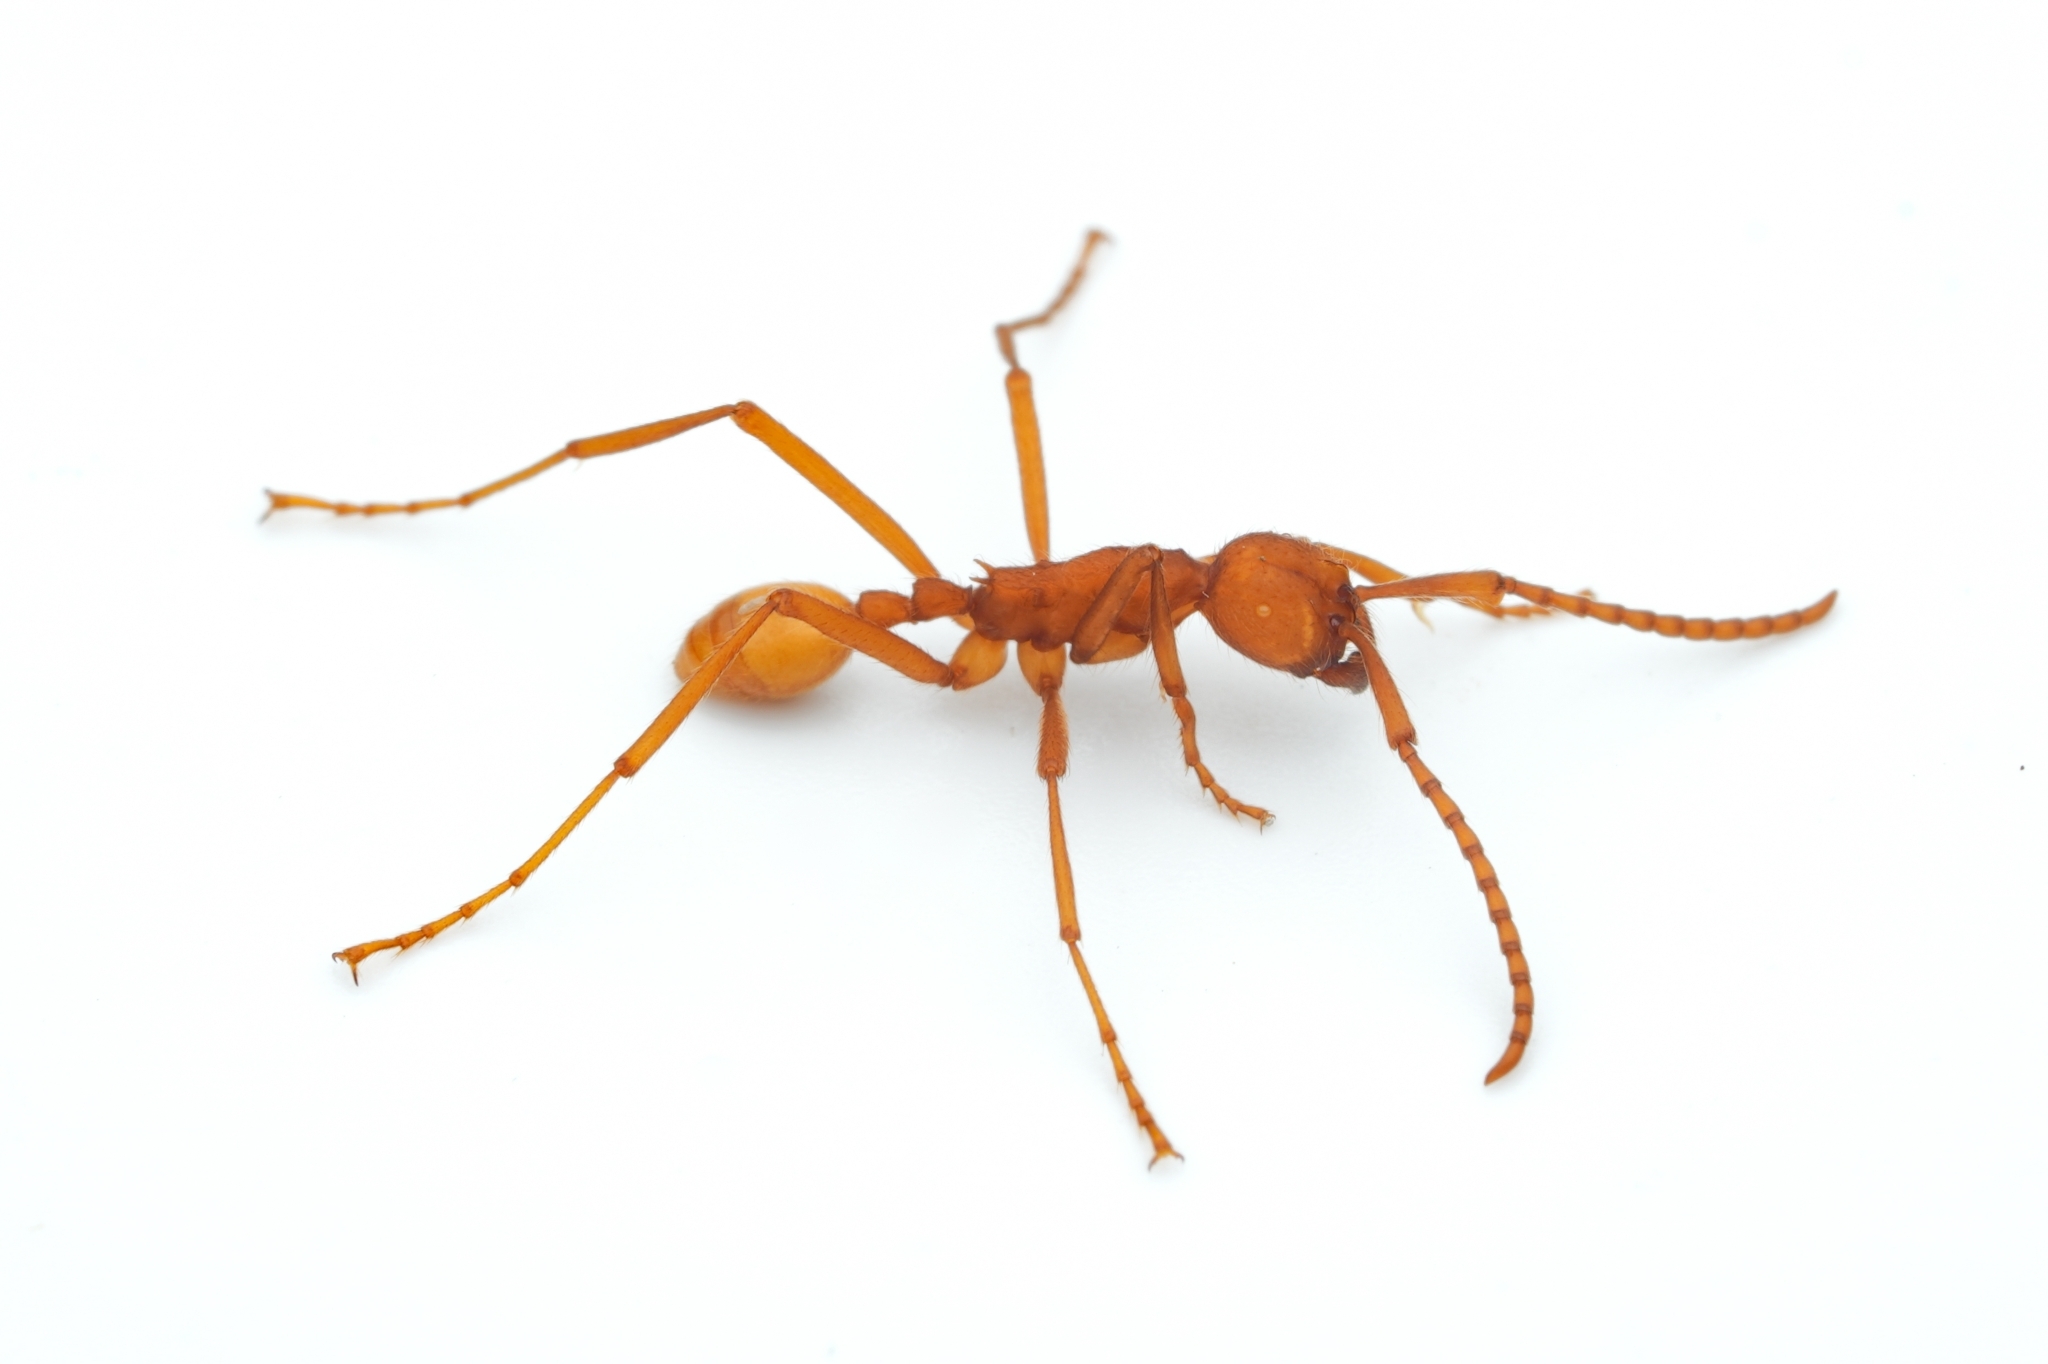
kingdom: Animalia
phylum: Arthropoda
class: Insecta
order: Hymenoptera
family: Formicidae
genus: Eciton
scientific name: Eciton dulcium
